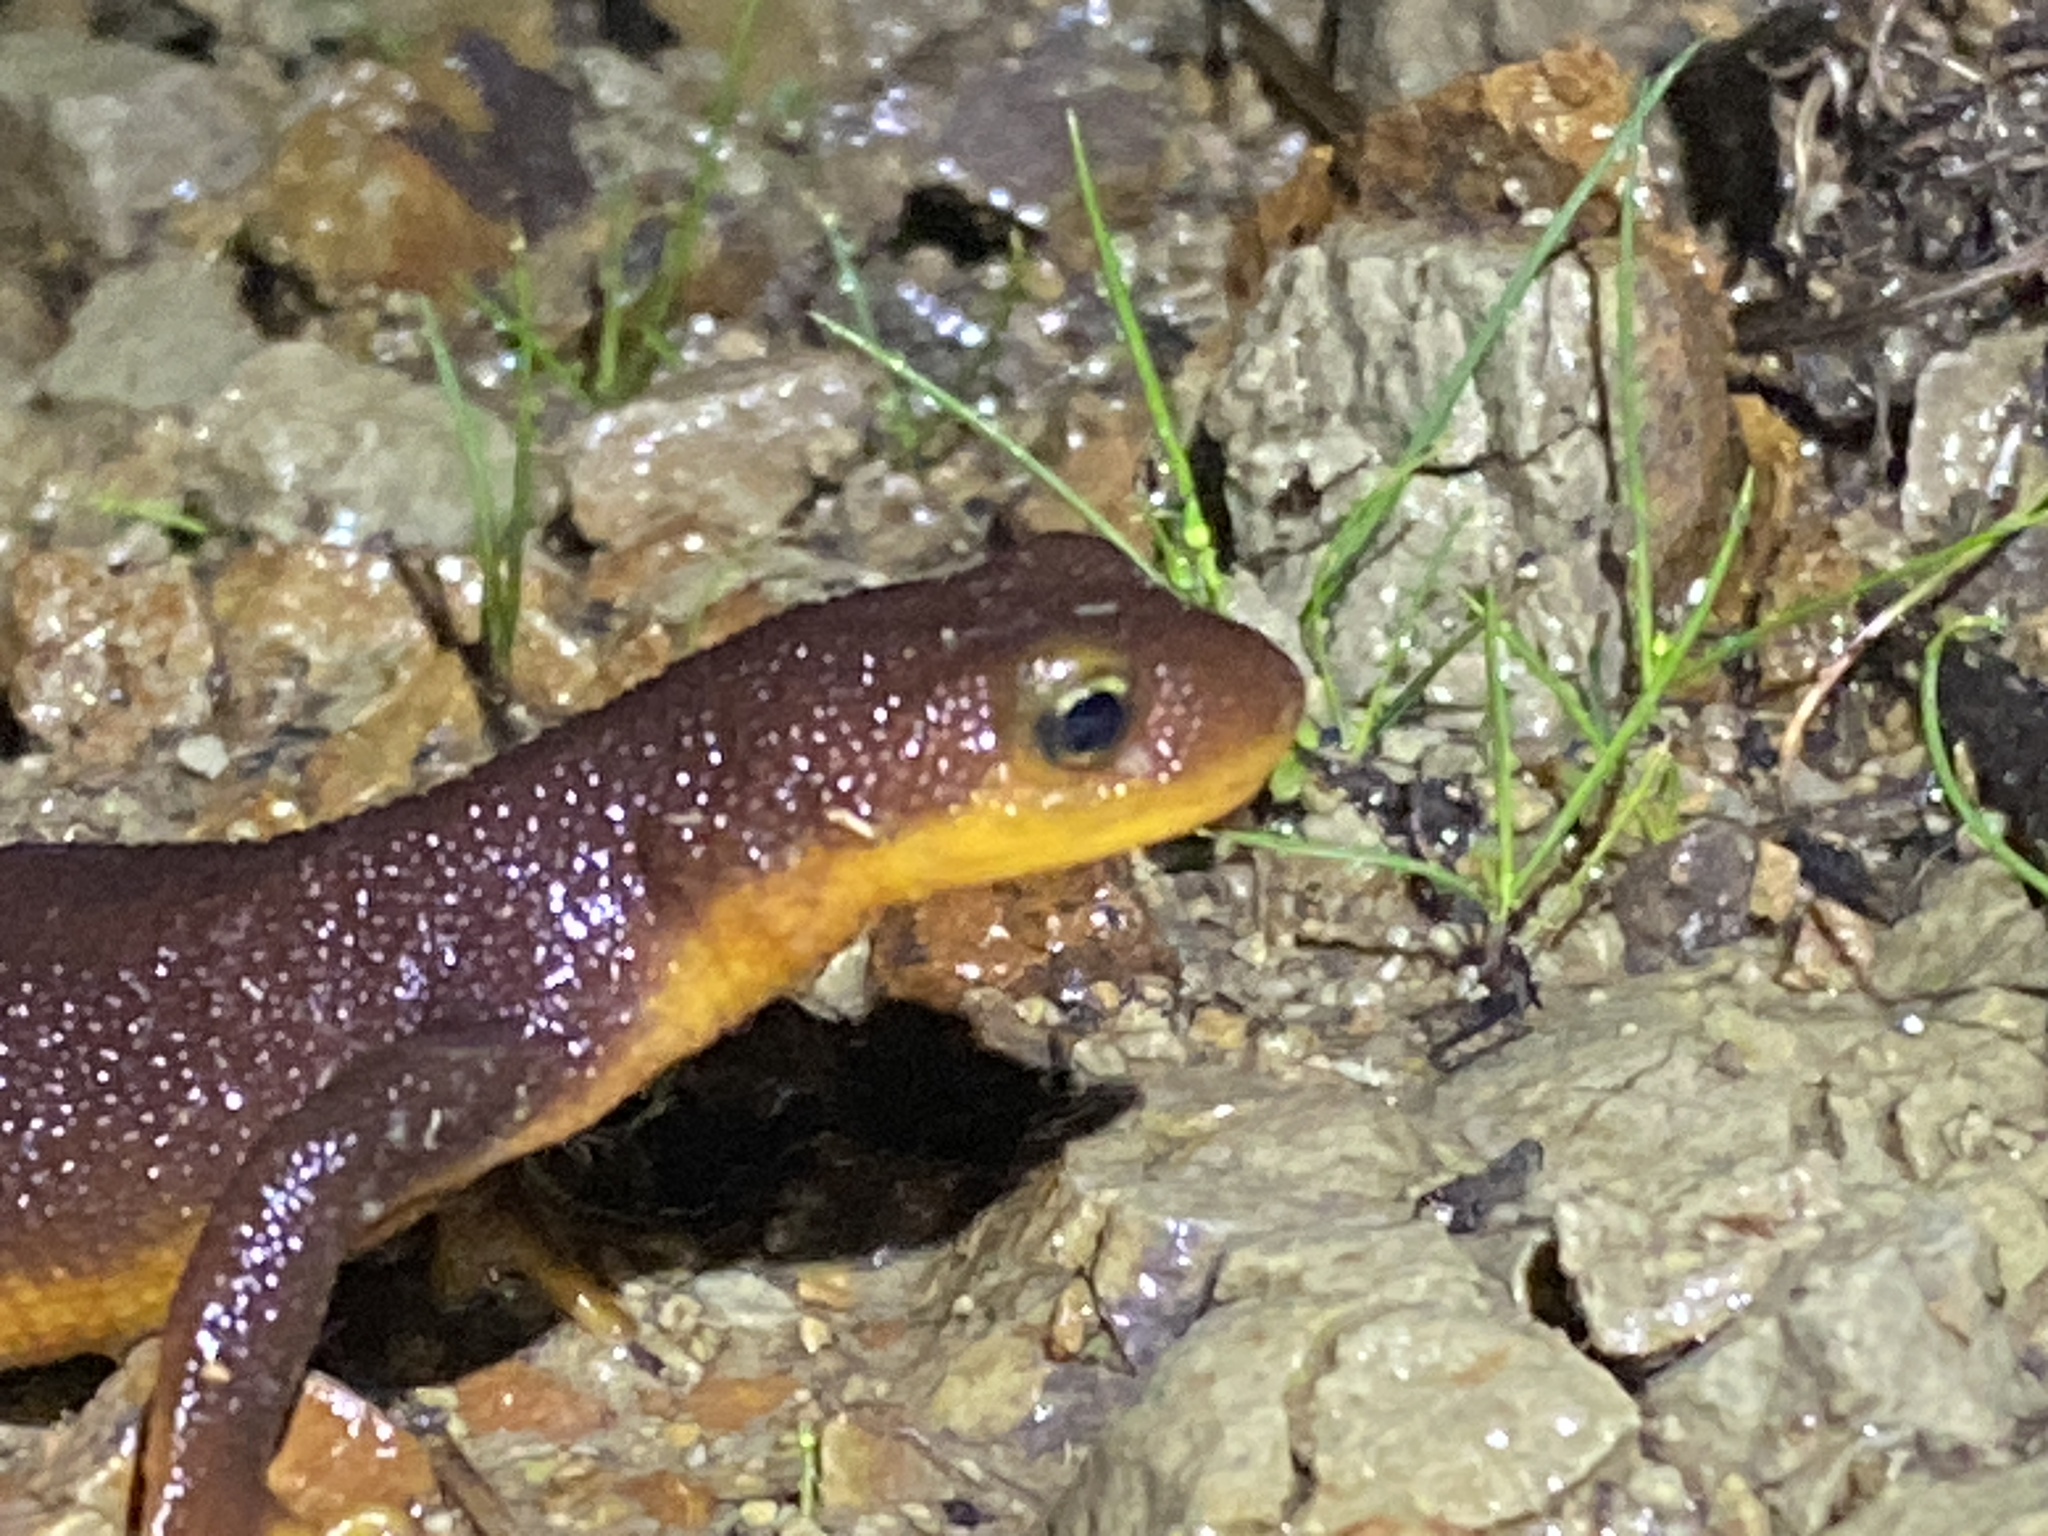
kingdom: Animalia
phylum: Chordata
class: Amphibia
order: Caudata
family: Salamandridae
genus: Taricha
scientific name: Taricha torosa
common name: California newt
